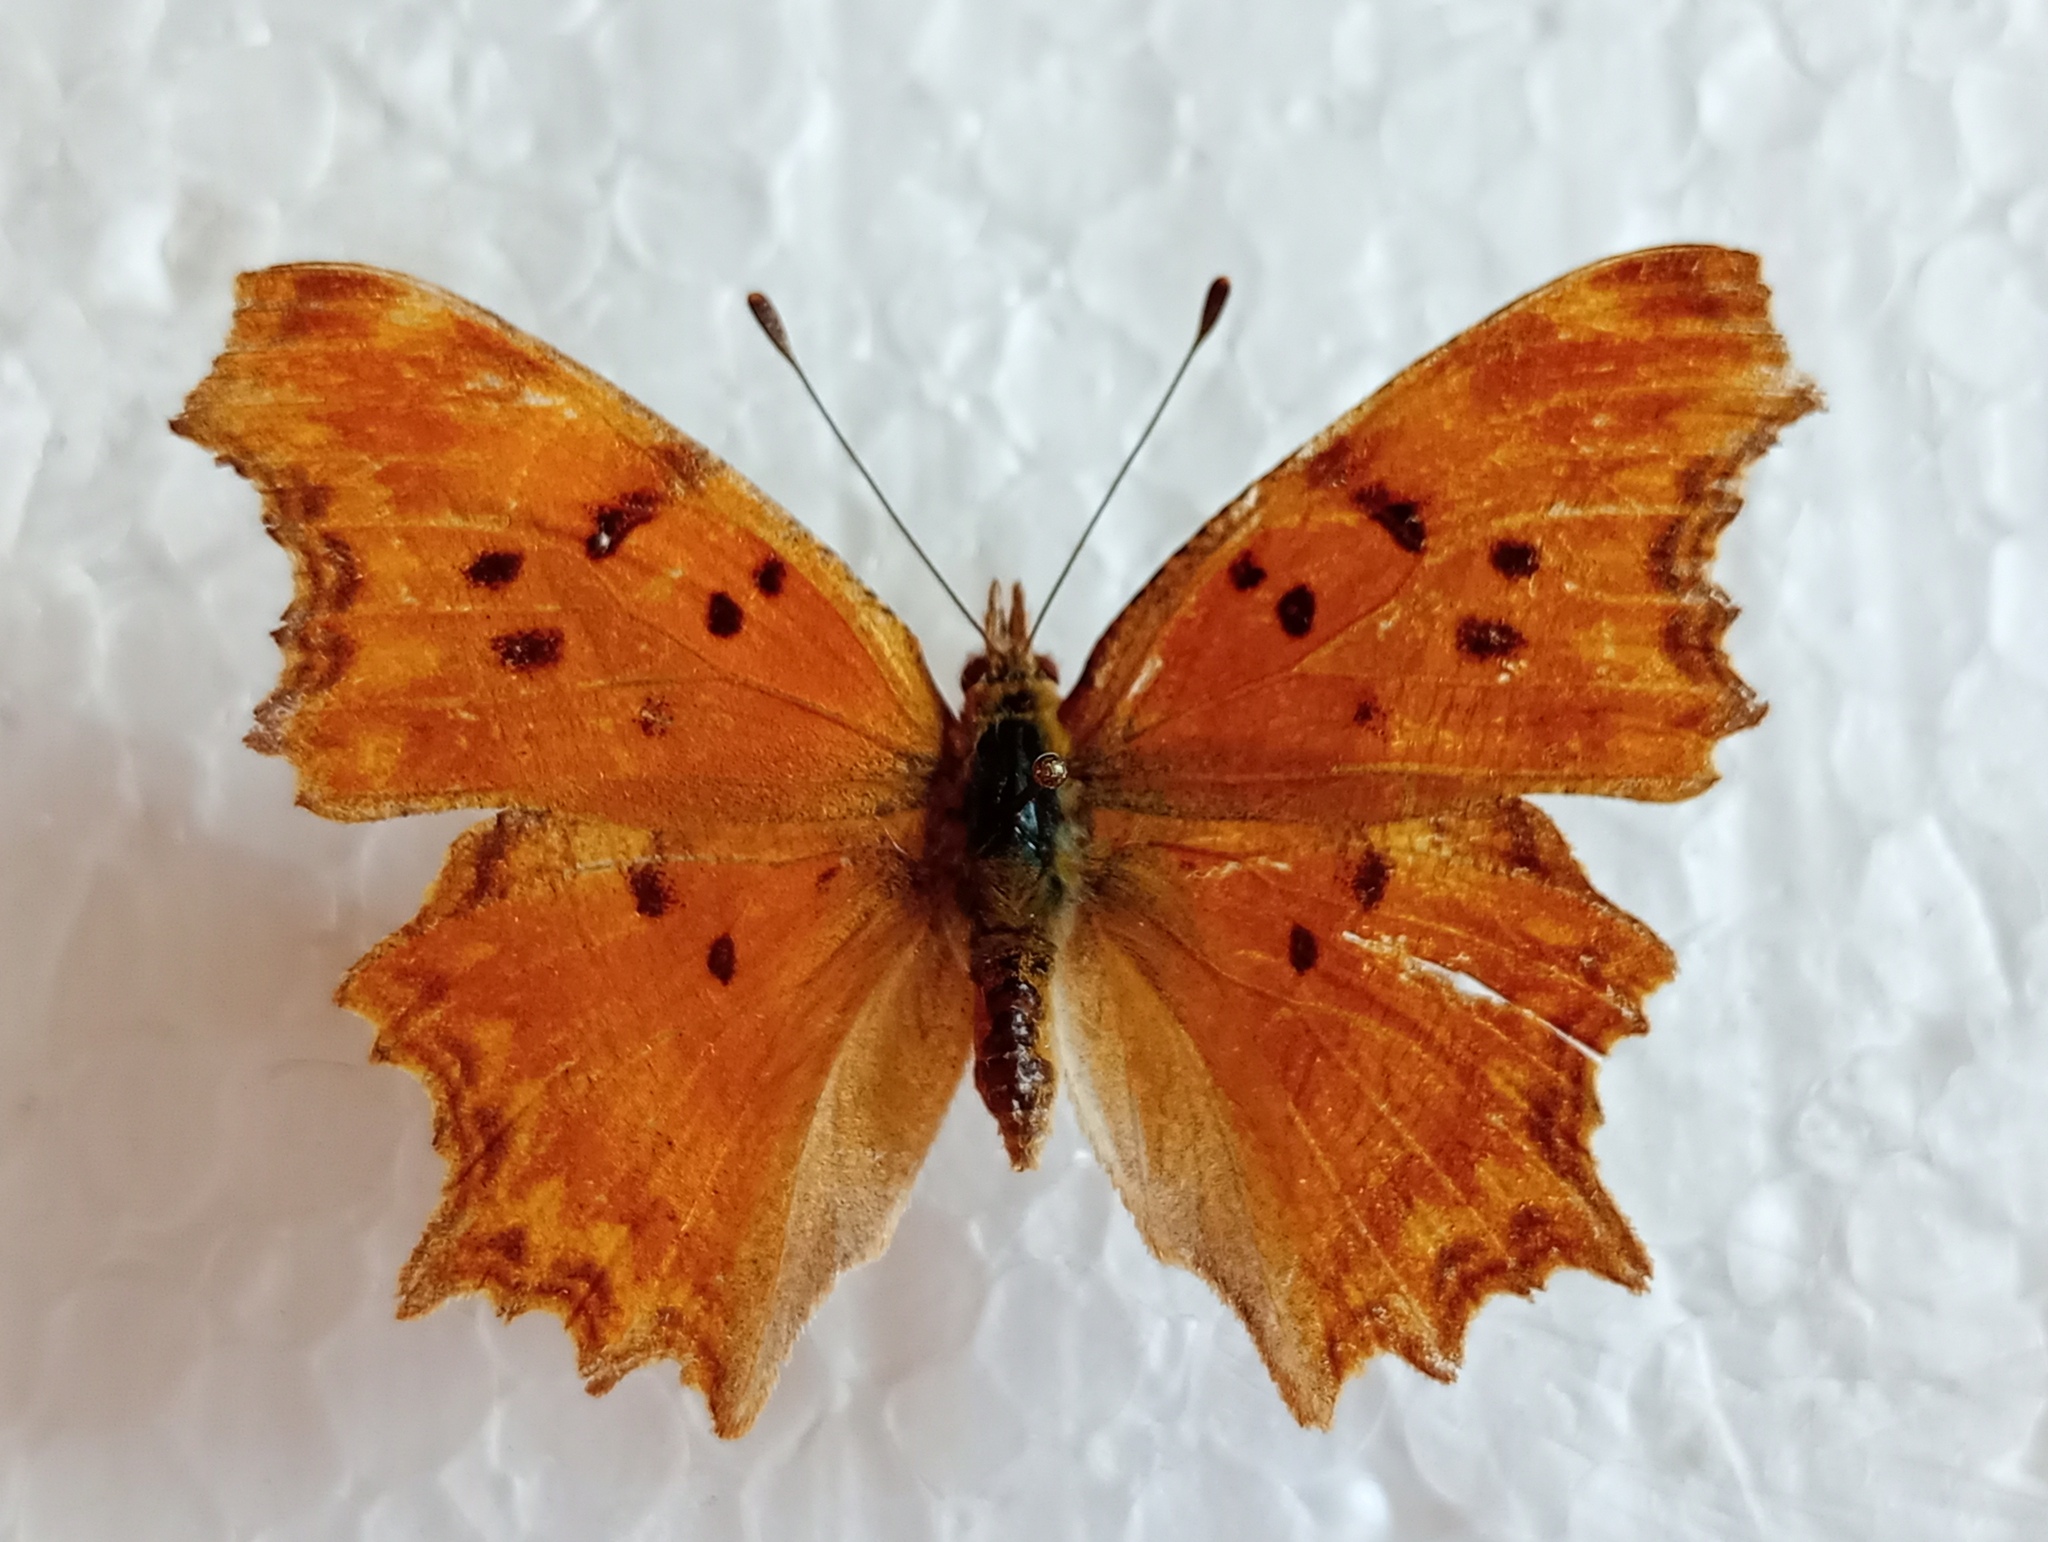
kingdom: Animalia
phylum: Arthropoda
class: Insecta
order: Lepidoptera
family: Nymphalidae
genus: Polygonia
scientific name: Polygonia egea
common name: Southern comma
